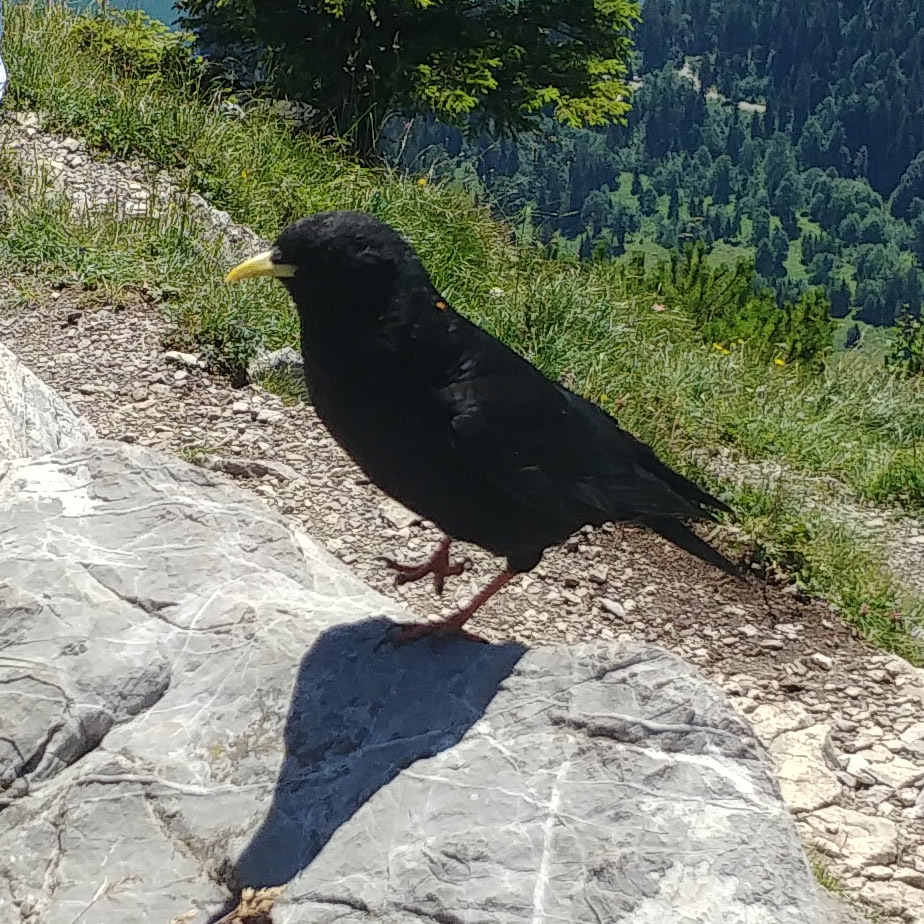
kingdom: Animalia
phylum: Chordata
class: Aves
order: Passeriformes
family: Corvidae
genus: Pyrrhocorax
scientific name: Pyrrhocorax graculus
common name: Alpine chough
